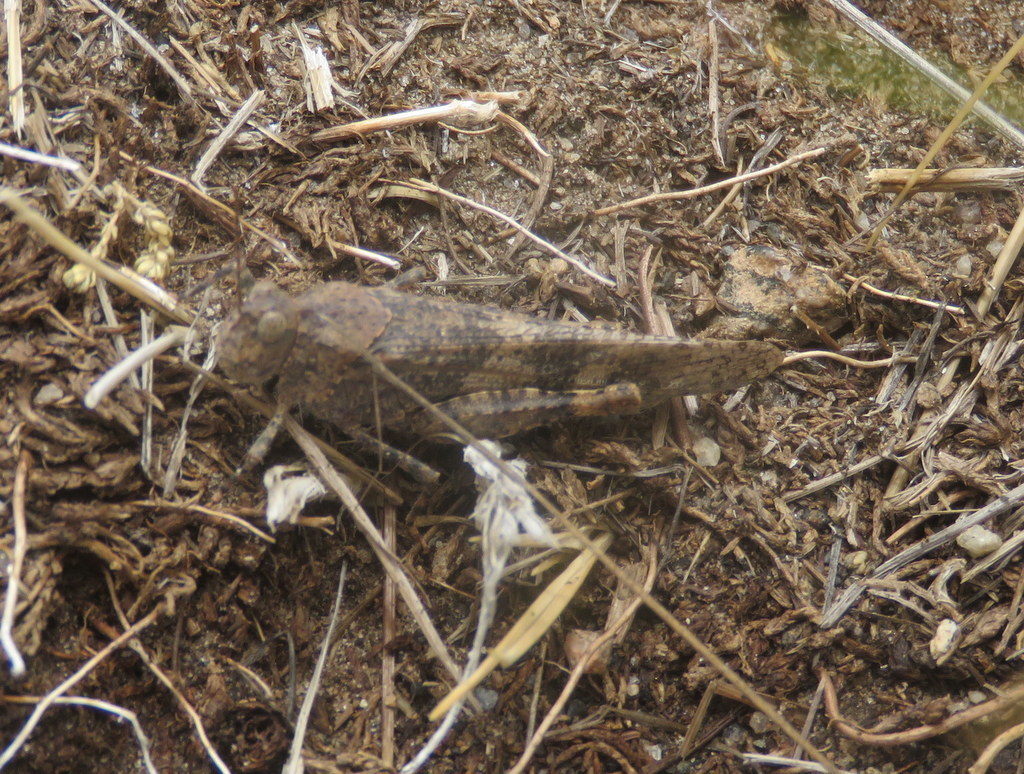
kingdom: Animalia
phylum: Arthropoda
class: Insecta
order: Orthoptera
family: Acrididae
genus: Trimerotropis
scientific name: Trimerotropis pallidipennis
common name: Pallid-winged grasshopper
